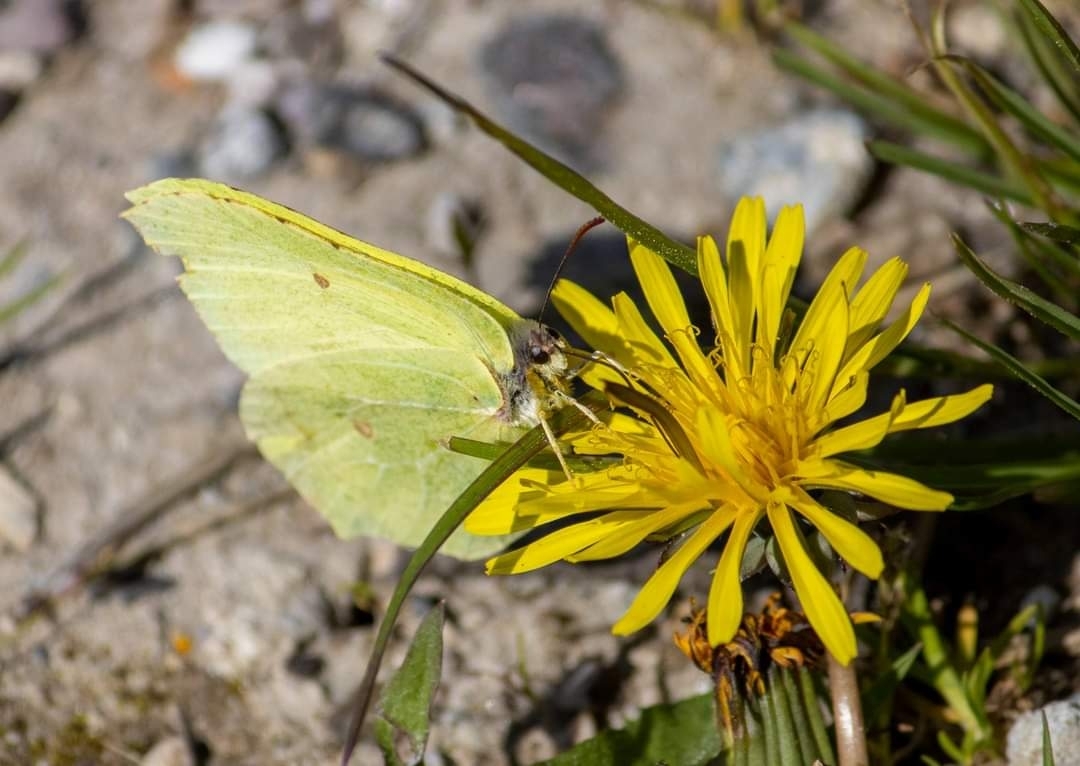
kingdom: Animalia
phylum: Arthropoda
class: Insecta
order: Lepidoptera
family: Pieridae
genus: Gonepteryx
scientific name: Gonepteryx rhamni
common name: Brimstone
